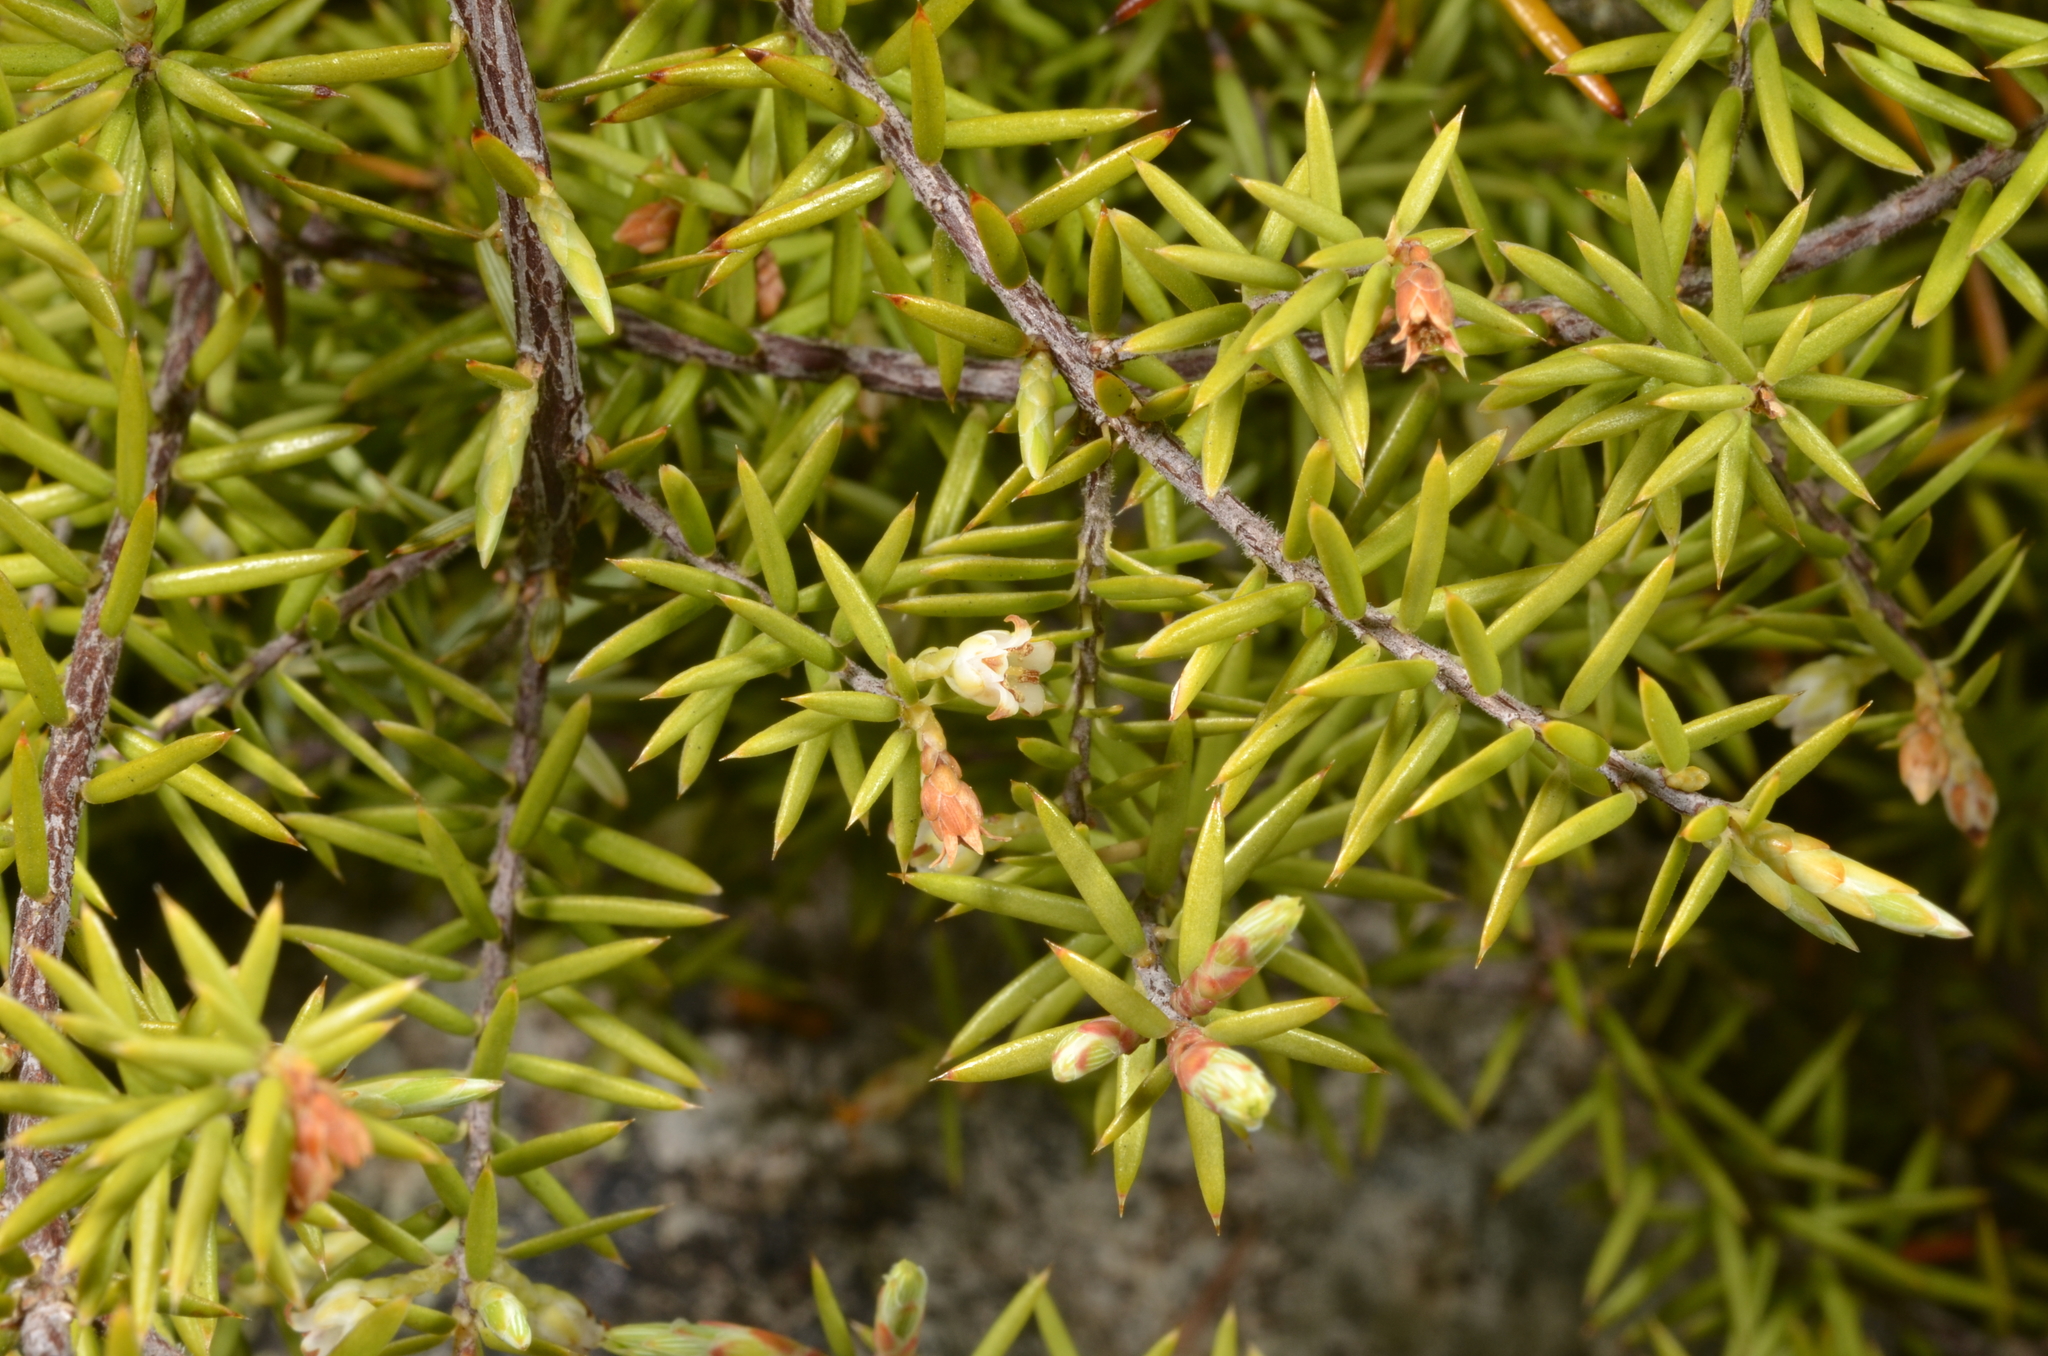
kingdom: Plantae
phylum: Tracheophyta
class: Magnoliopsida
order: Ericales
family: Ericaceae
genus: Leptecophylla
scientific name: Leptecophylla juniperina
